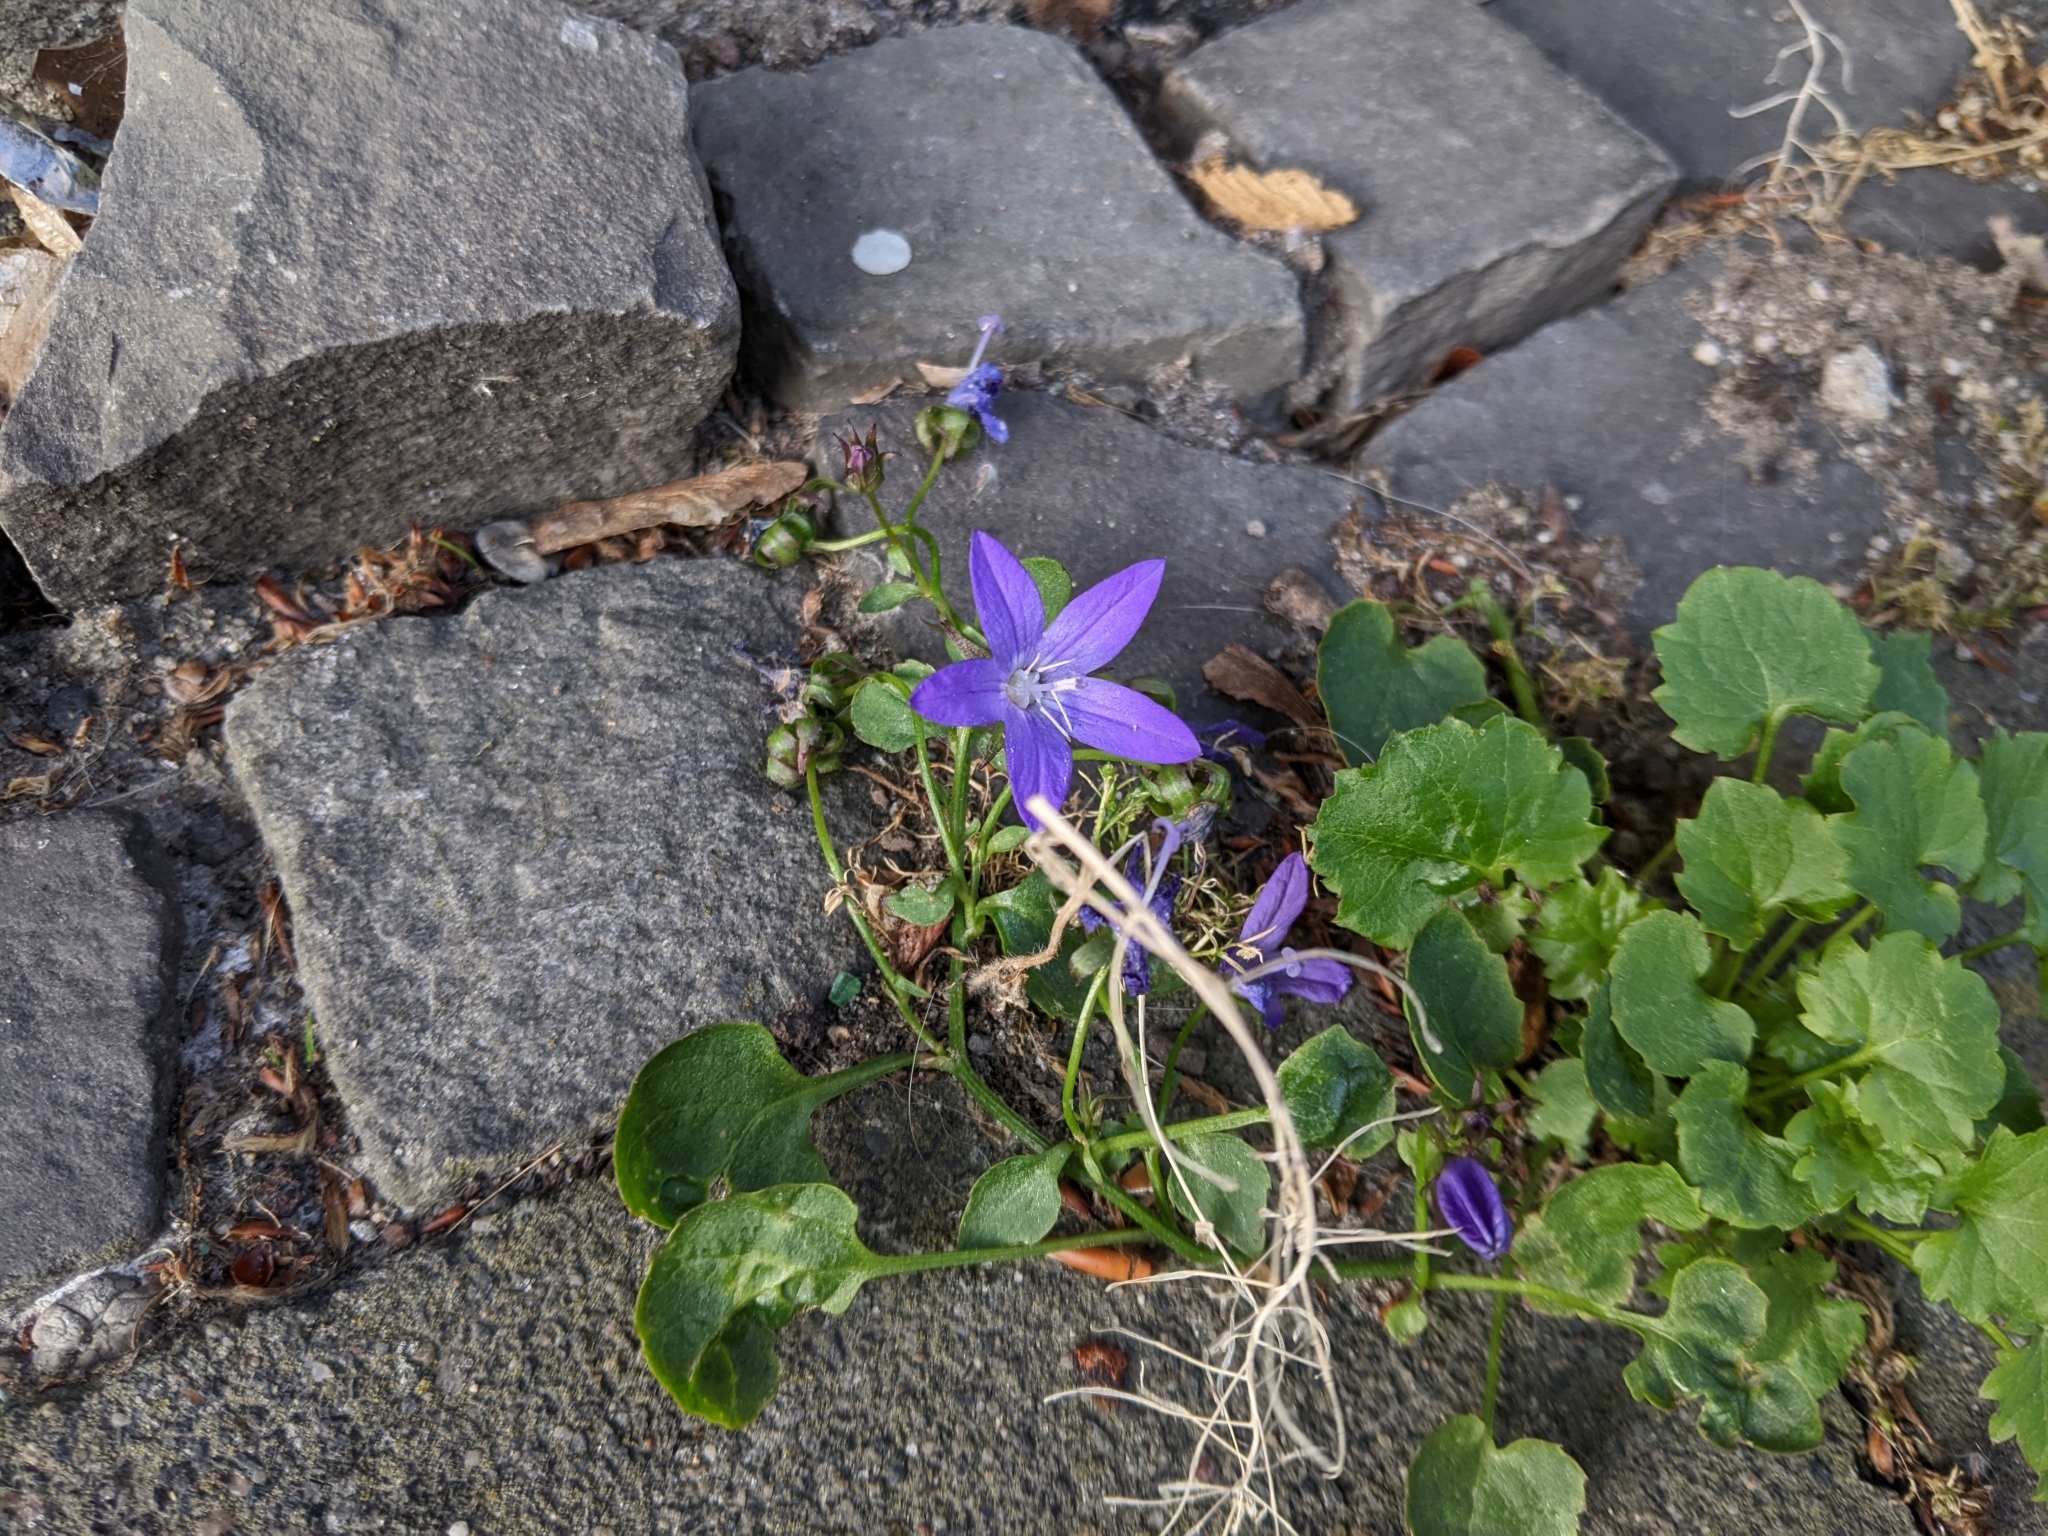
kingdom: Plantae
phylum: Tracheophyta
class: Magnoliopsida
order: Asterales
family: Campanulaceae
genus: Campanula
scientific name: Campanula poscharskyana
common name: Trailing bellflower
